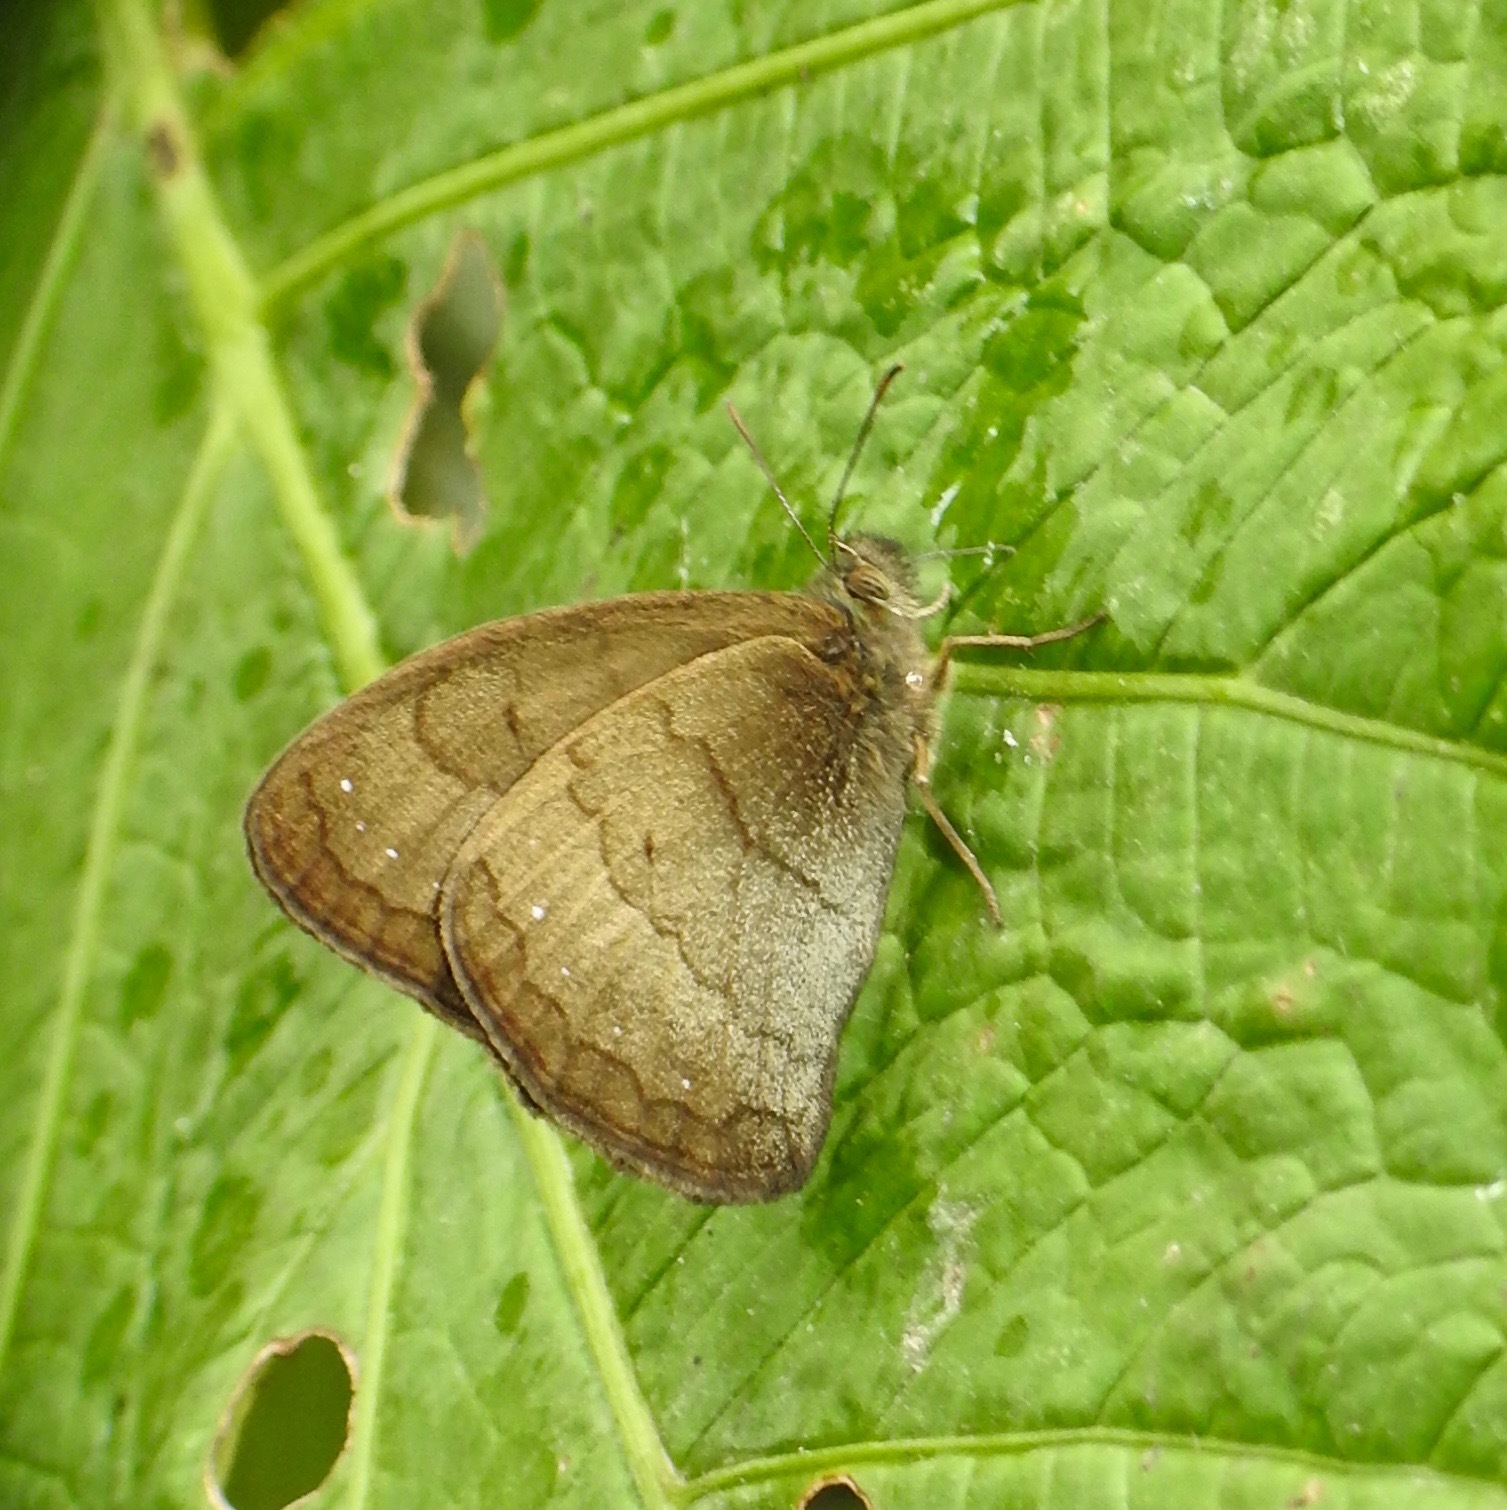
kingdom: Animalia
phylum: Arthropoda
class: Insecta
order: Lepidoptera
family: Nymphalidae
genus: Forsterinaria
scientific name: Forsterinaria
